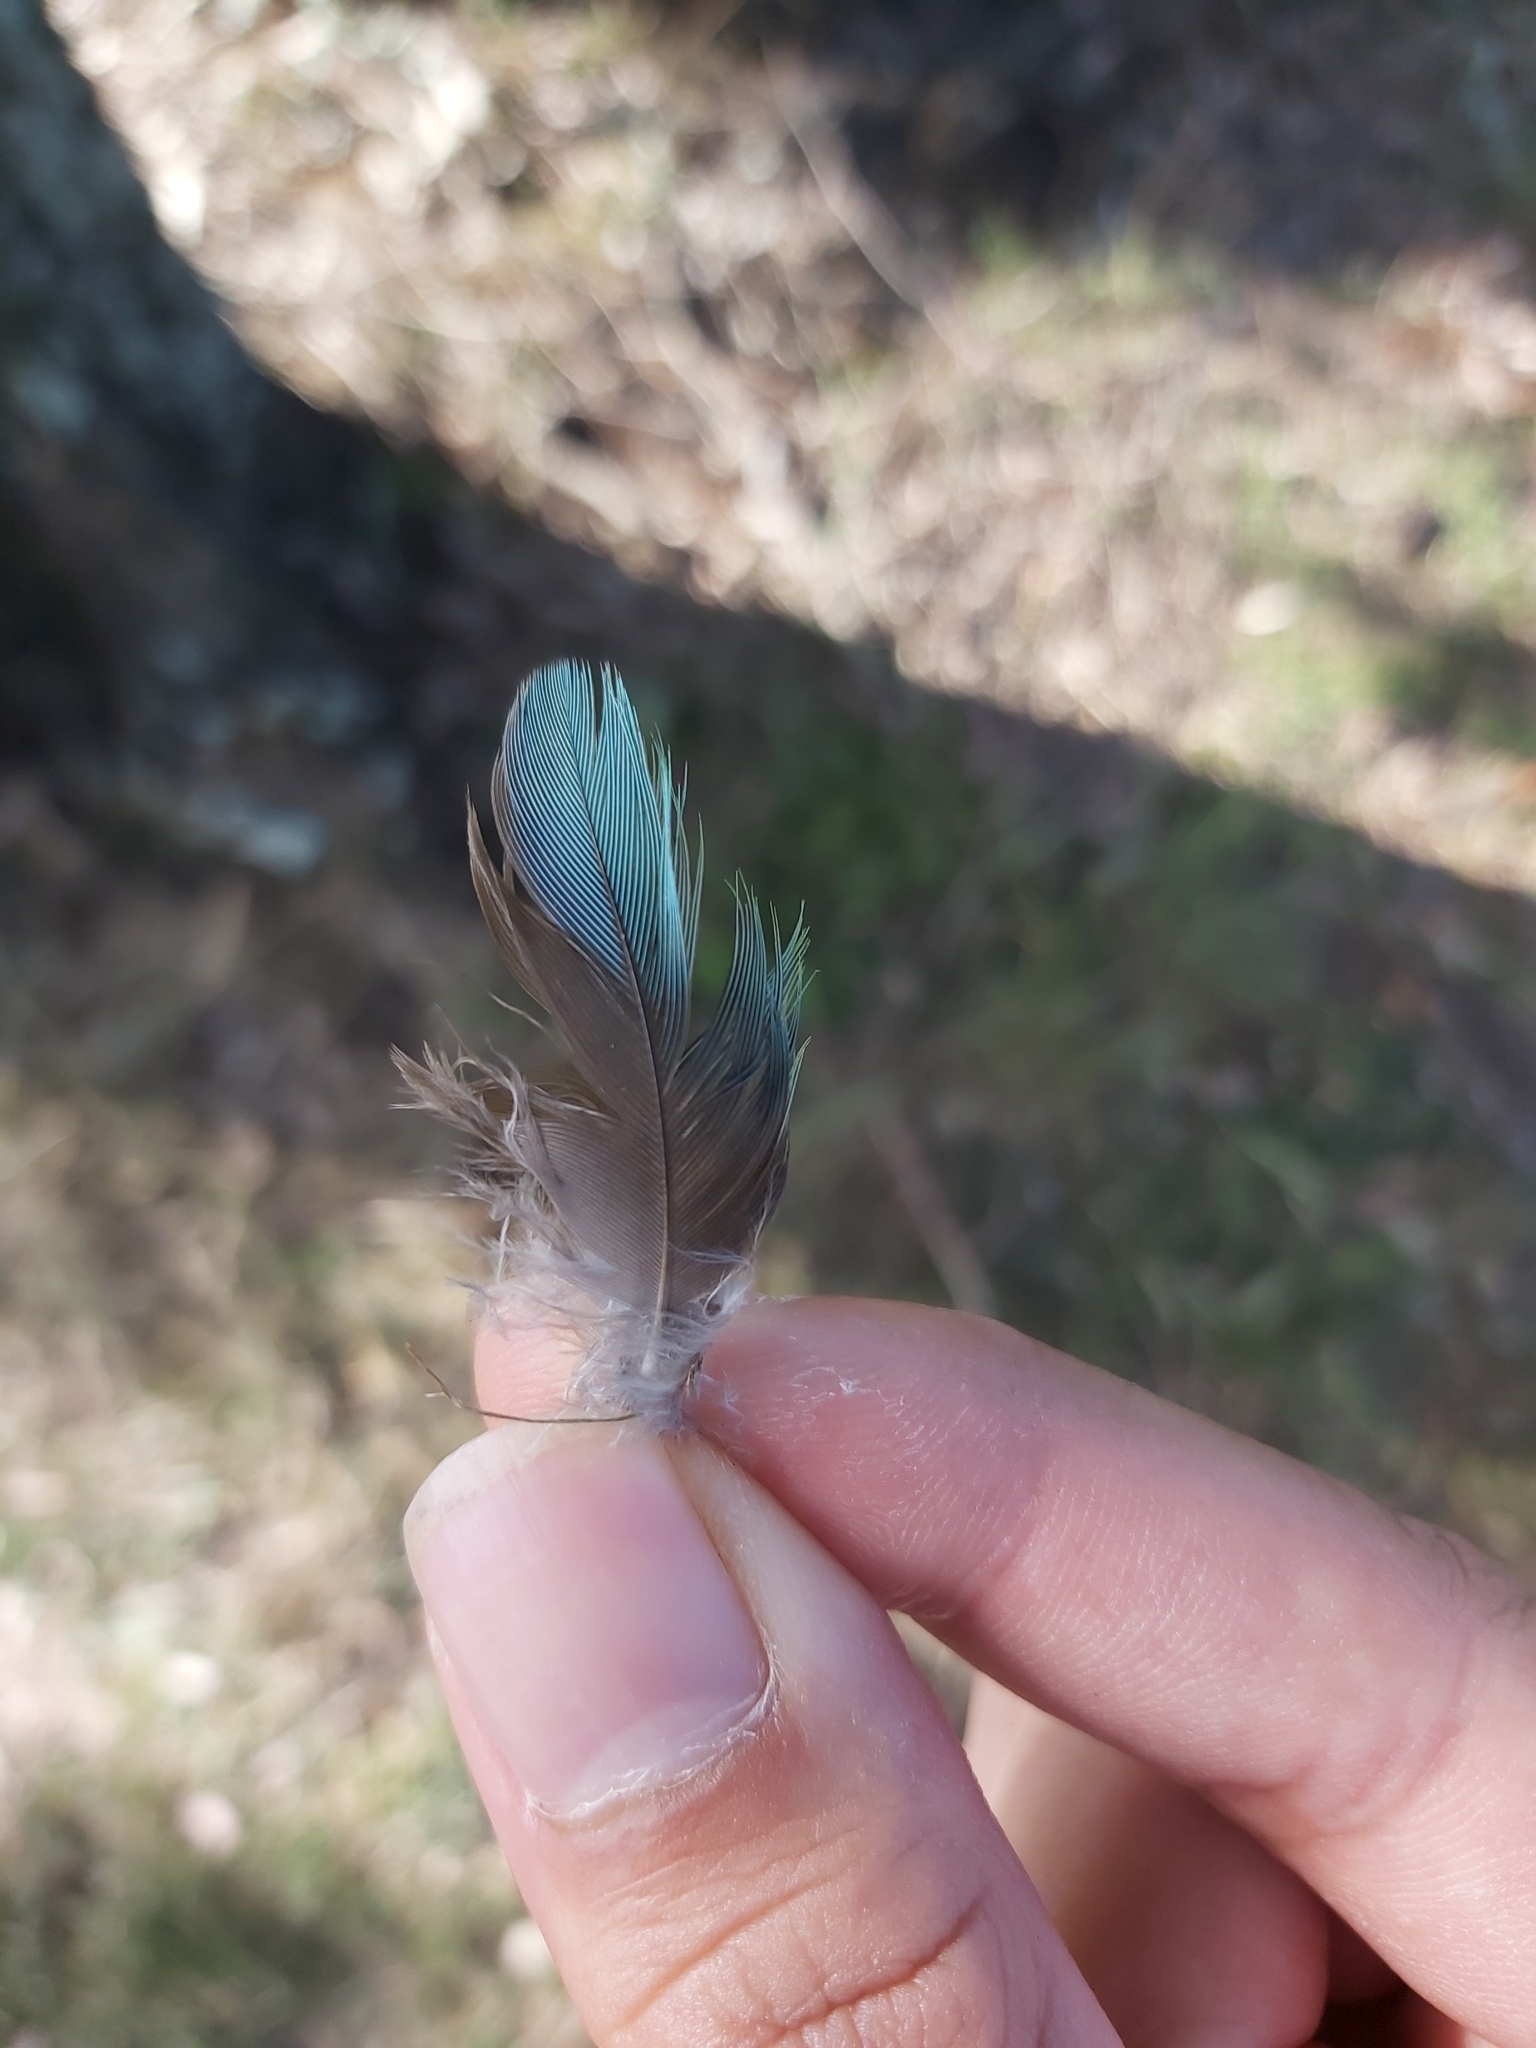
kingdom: Animalia
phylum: Chordata
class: Aves
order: Psittaciformes
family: Psittacidae
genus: Psephotus
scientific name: Psephotus haematonotus
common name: Red-rumped parrot
